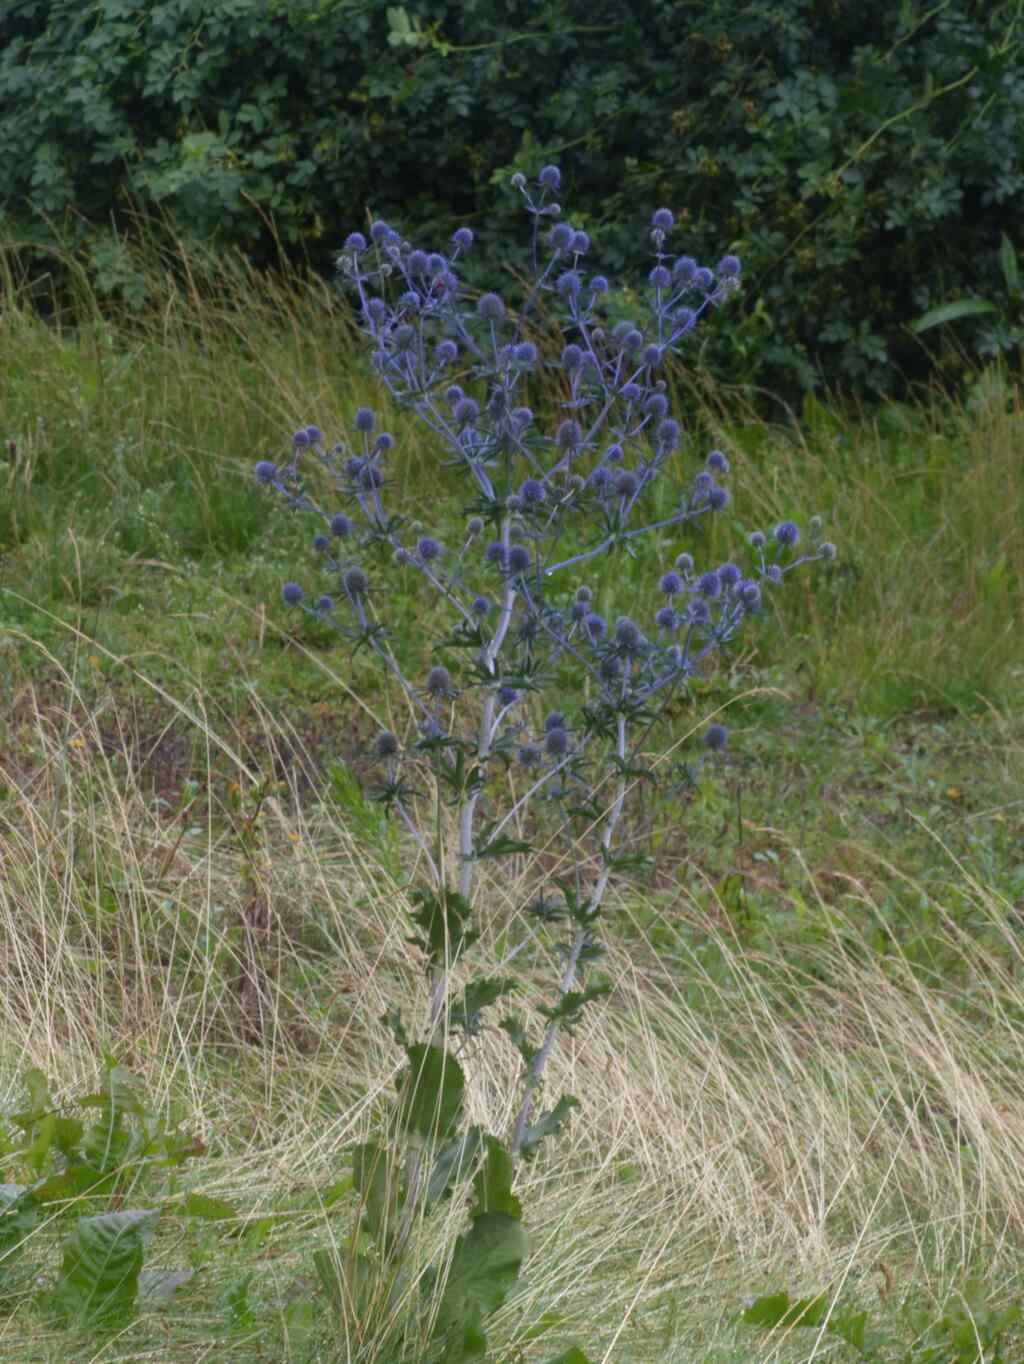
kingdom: Plantae
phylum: Tracheophyta
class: Magnoliopsida
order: Apiales
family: Apiaceae
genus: Eryngium
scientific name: Eryngium planum
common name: Blue eryngo
